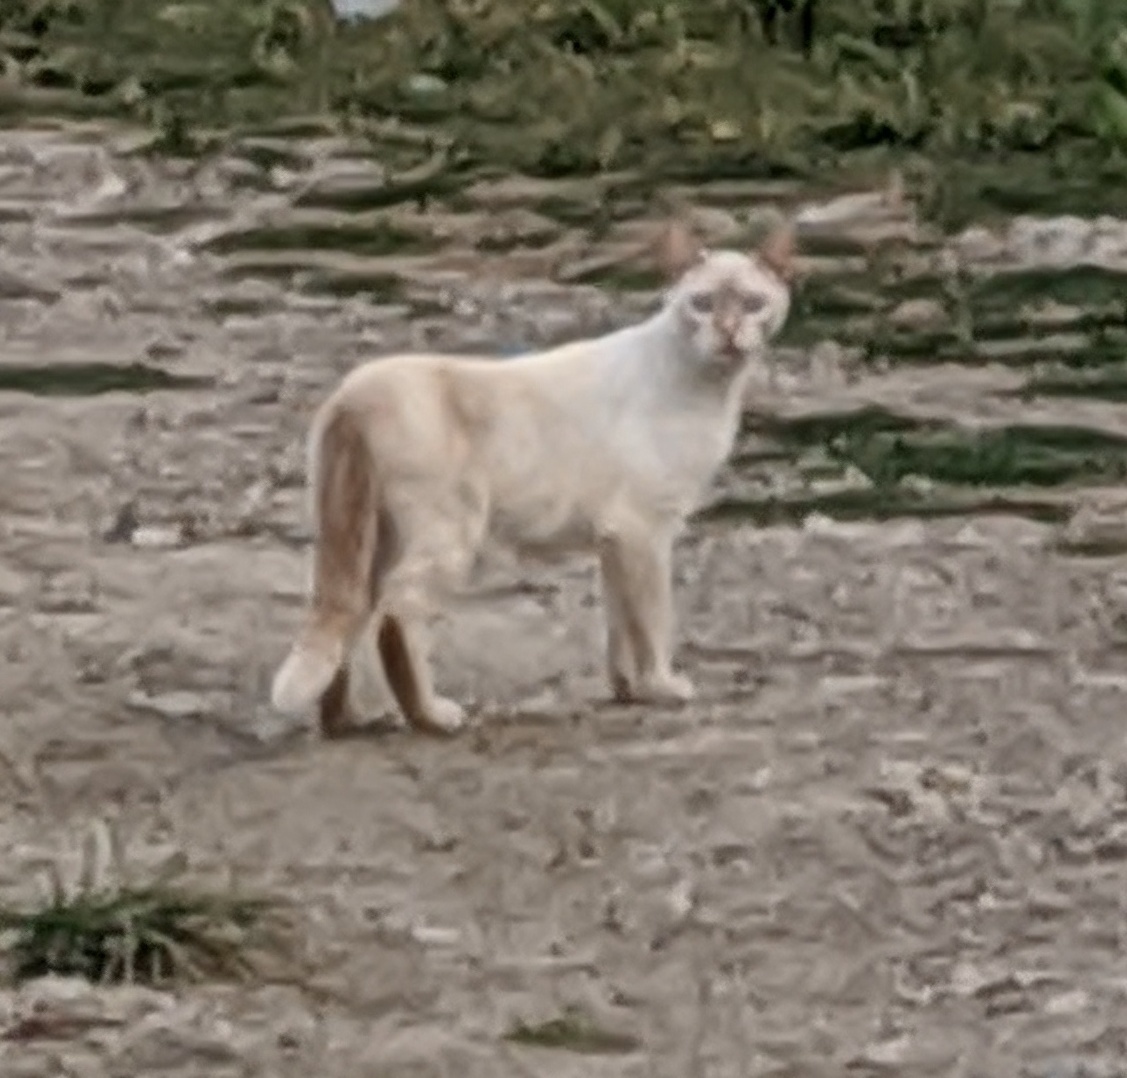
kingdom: Animalia
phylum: Chordata
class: Mammalia
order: Carnivora
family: Felidae
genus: Felis
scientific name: Felis catus
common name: Domestic cat
